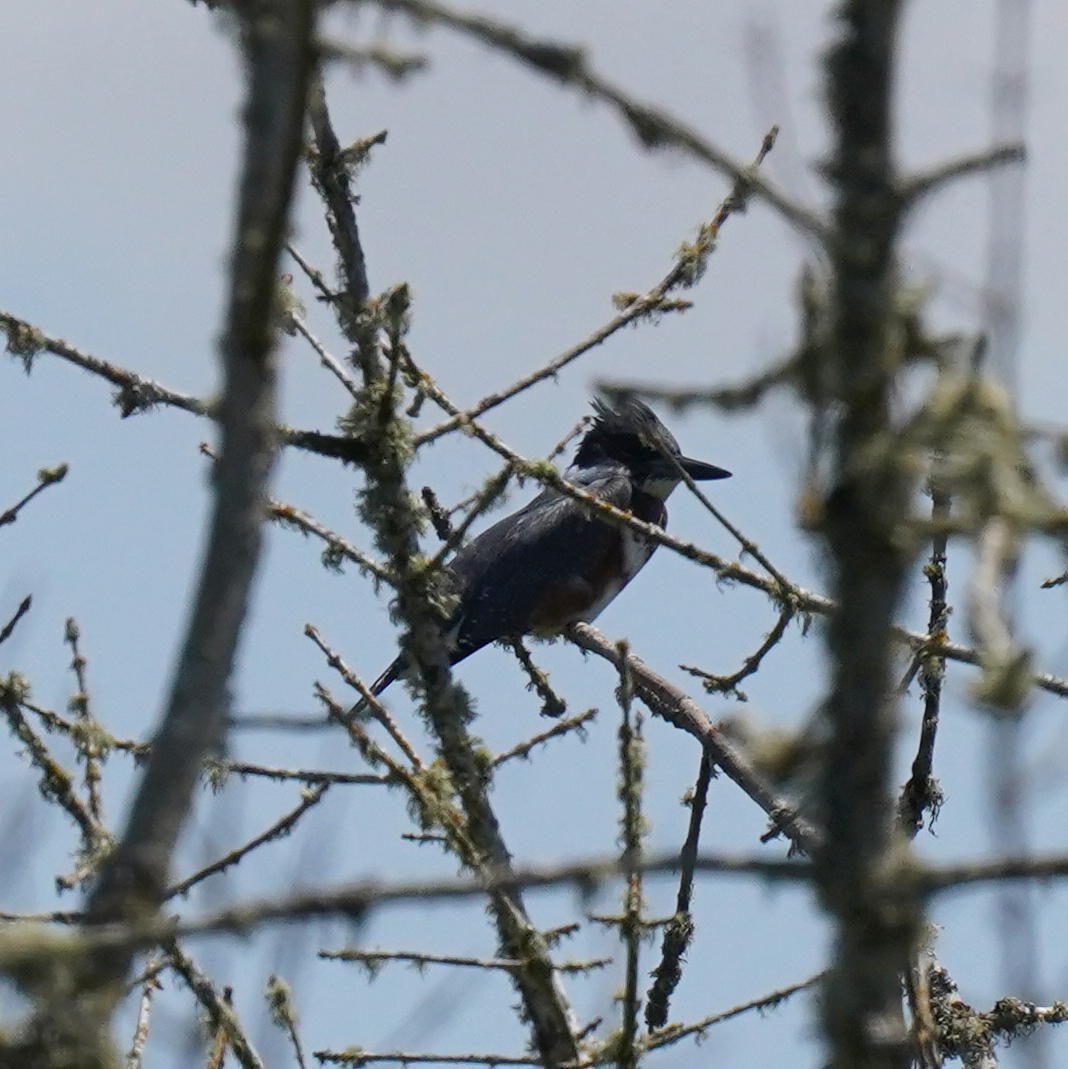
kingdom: Animalia
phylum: Chordata
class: Aves
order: Coraciiformes
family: Alcedinidae
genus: Megaceryle
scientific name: Megaceryle alcyon
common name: Belted kingfisher
